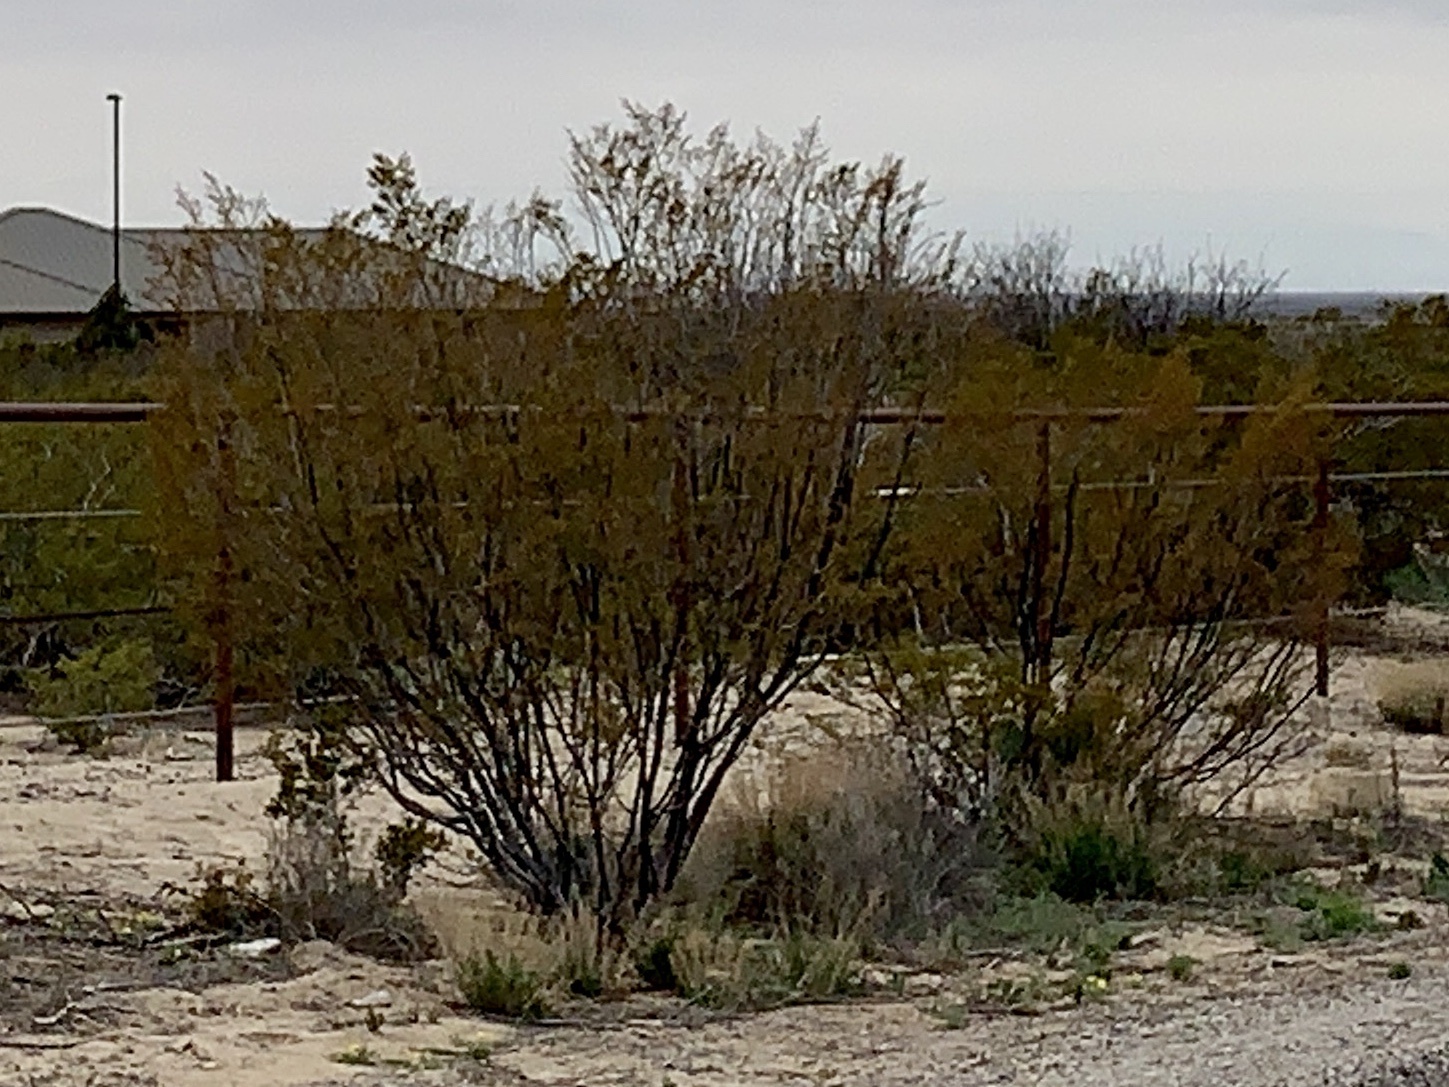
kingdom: Plantae
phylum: Tracheophyta
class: Magnoliopsida
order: Zygophyllales
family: Zygophyllaceae
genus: Larrea
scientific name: Larrea tridentata
